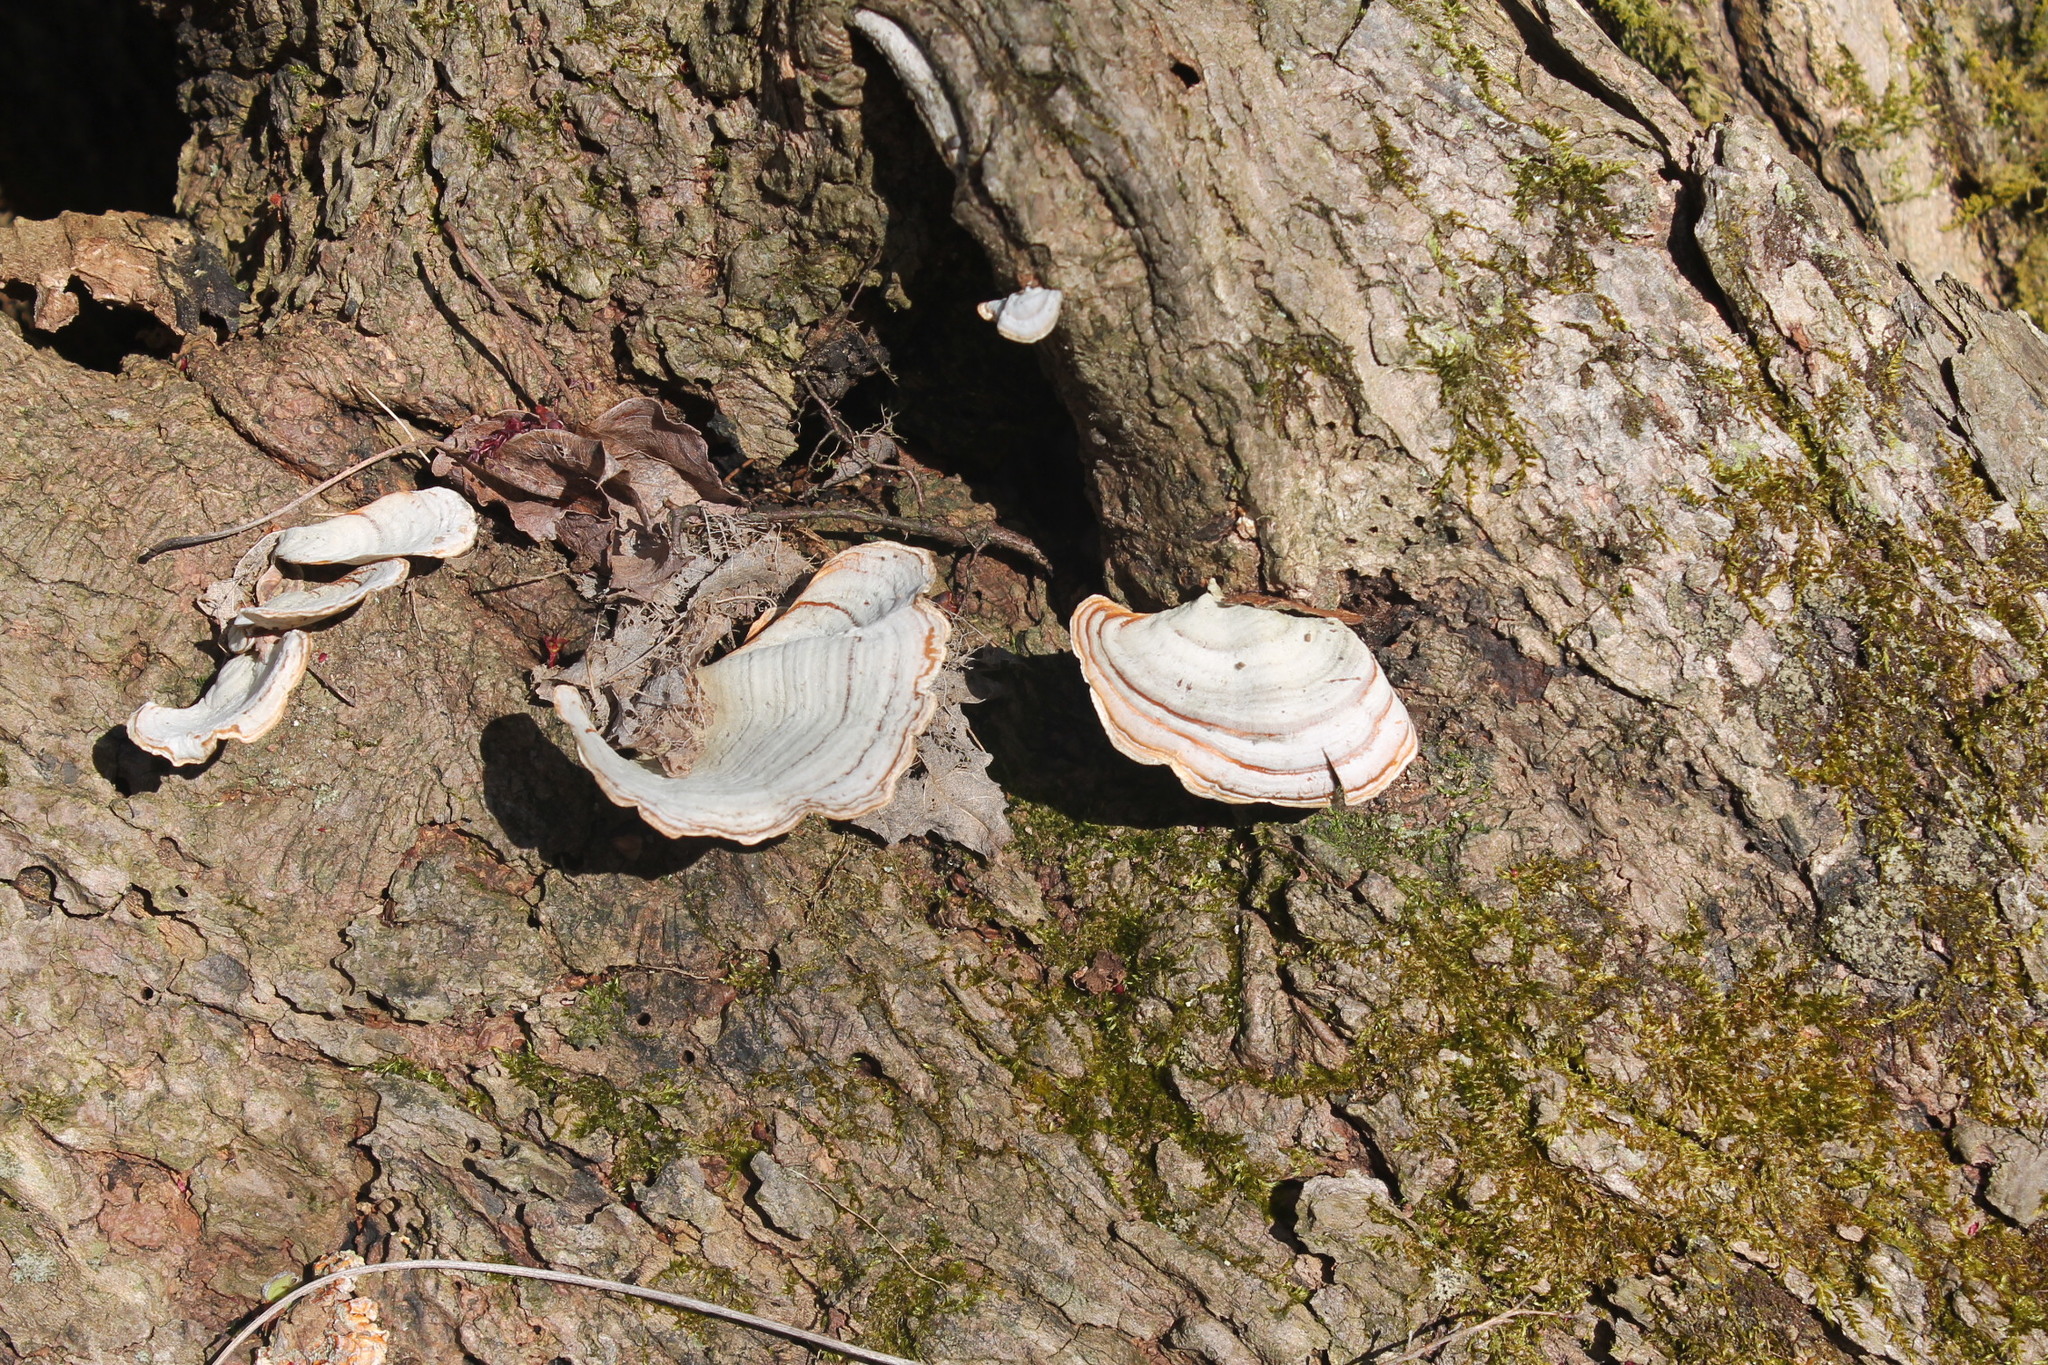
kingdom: Fungi
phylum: Basidiomycota
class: Agaricomycetes
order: Russulales
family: Stereaceae
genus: Stereum
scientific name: Stereum lobatum
